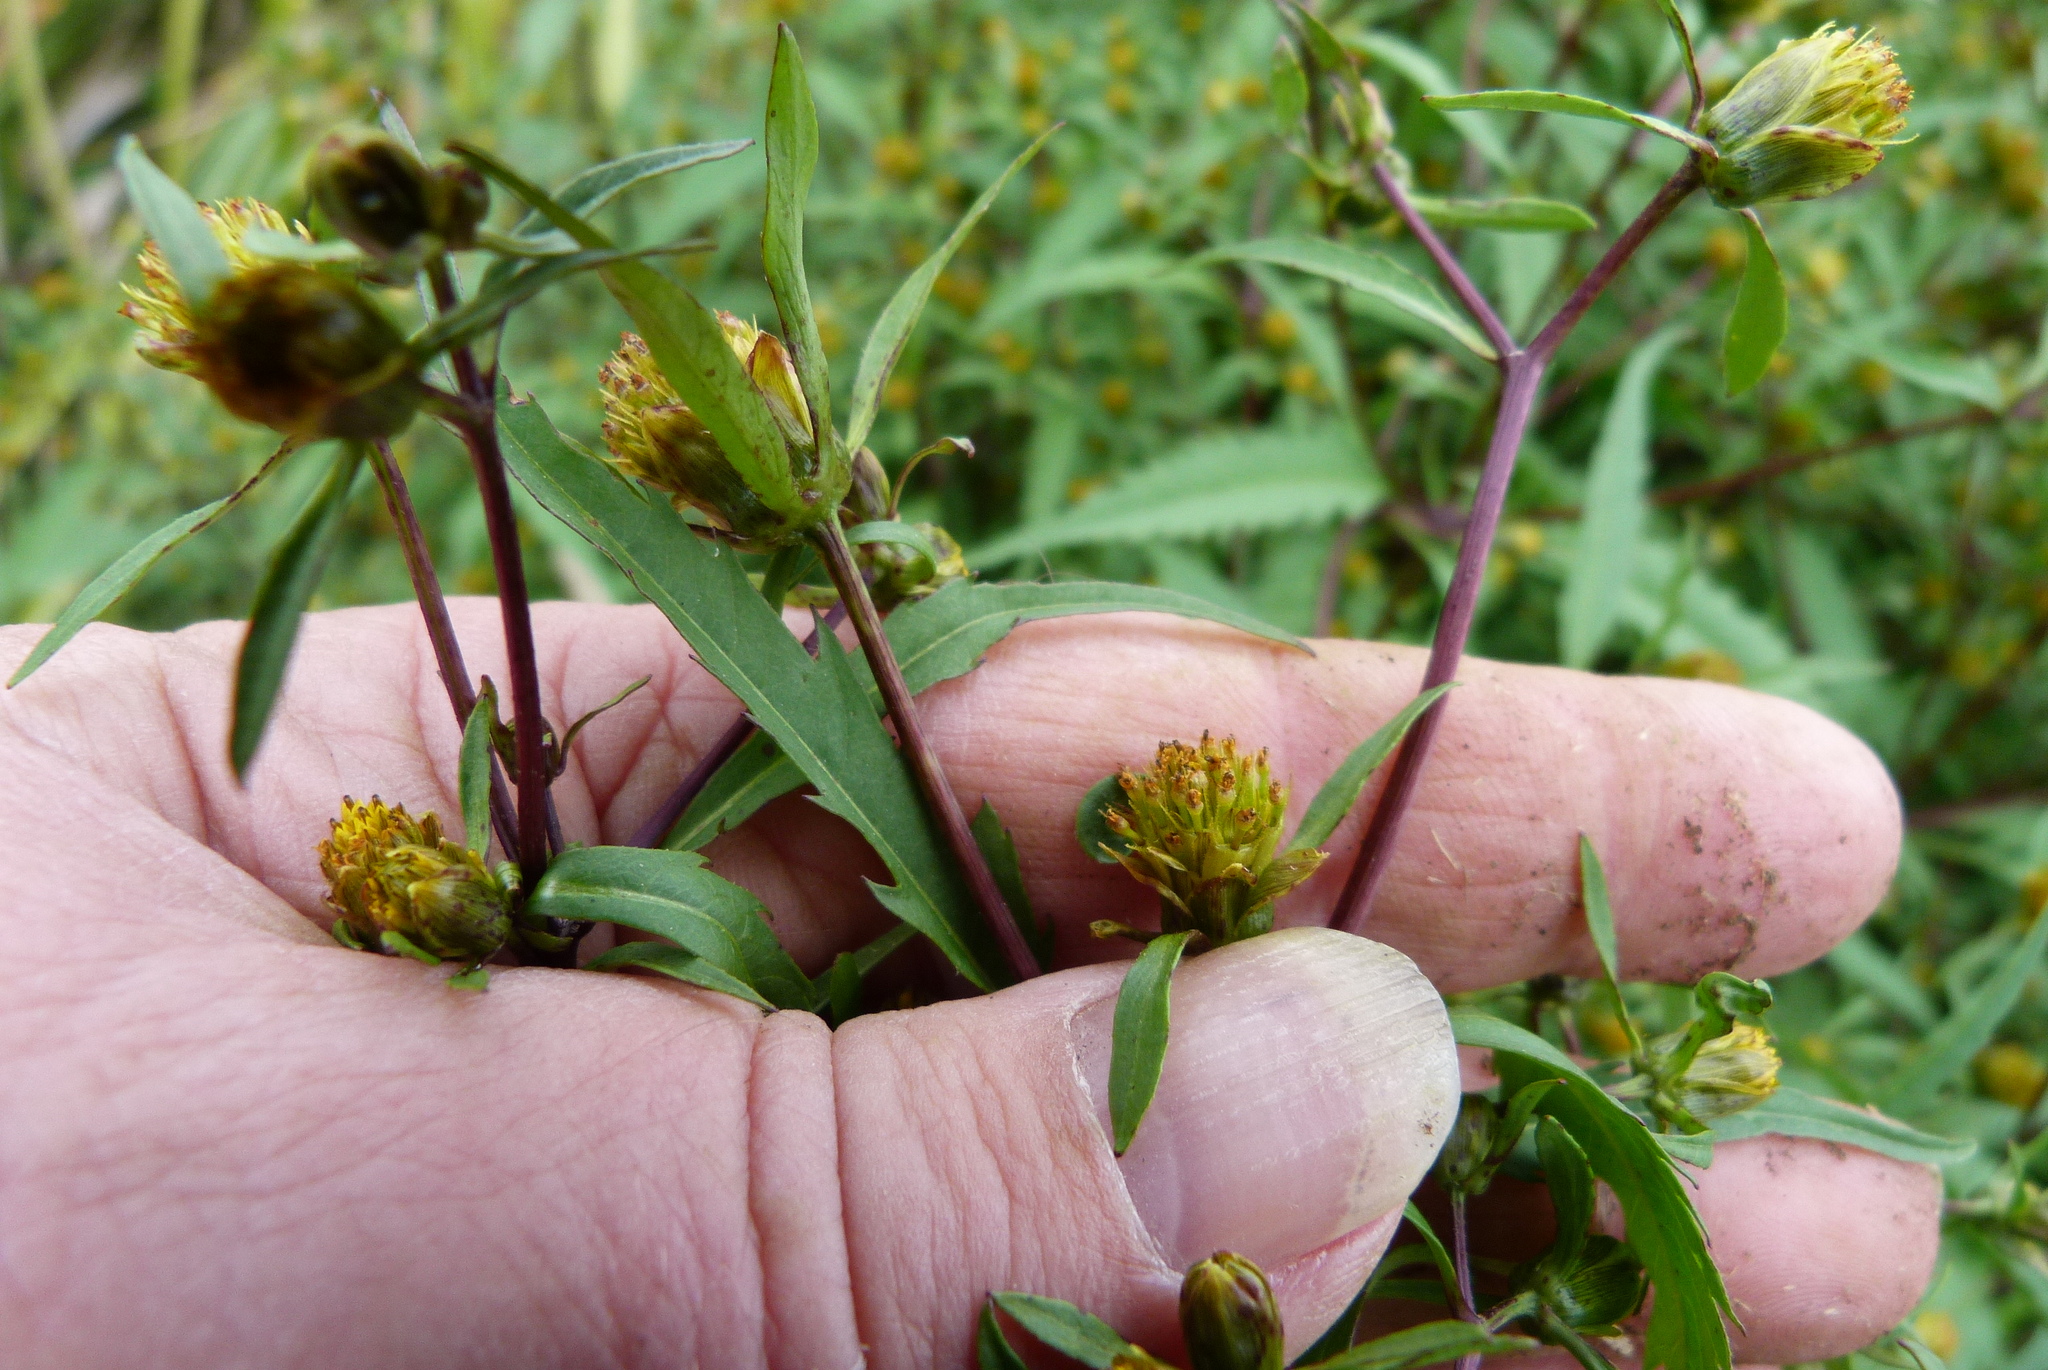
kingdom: Plantae
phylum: Tracheophyta
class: Magnoliopsida
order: Asterales
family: Asteraceae
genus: Bidens
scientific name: Bidens frondosa
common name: Beggarticks
